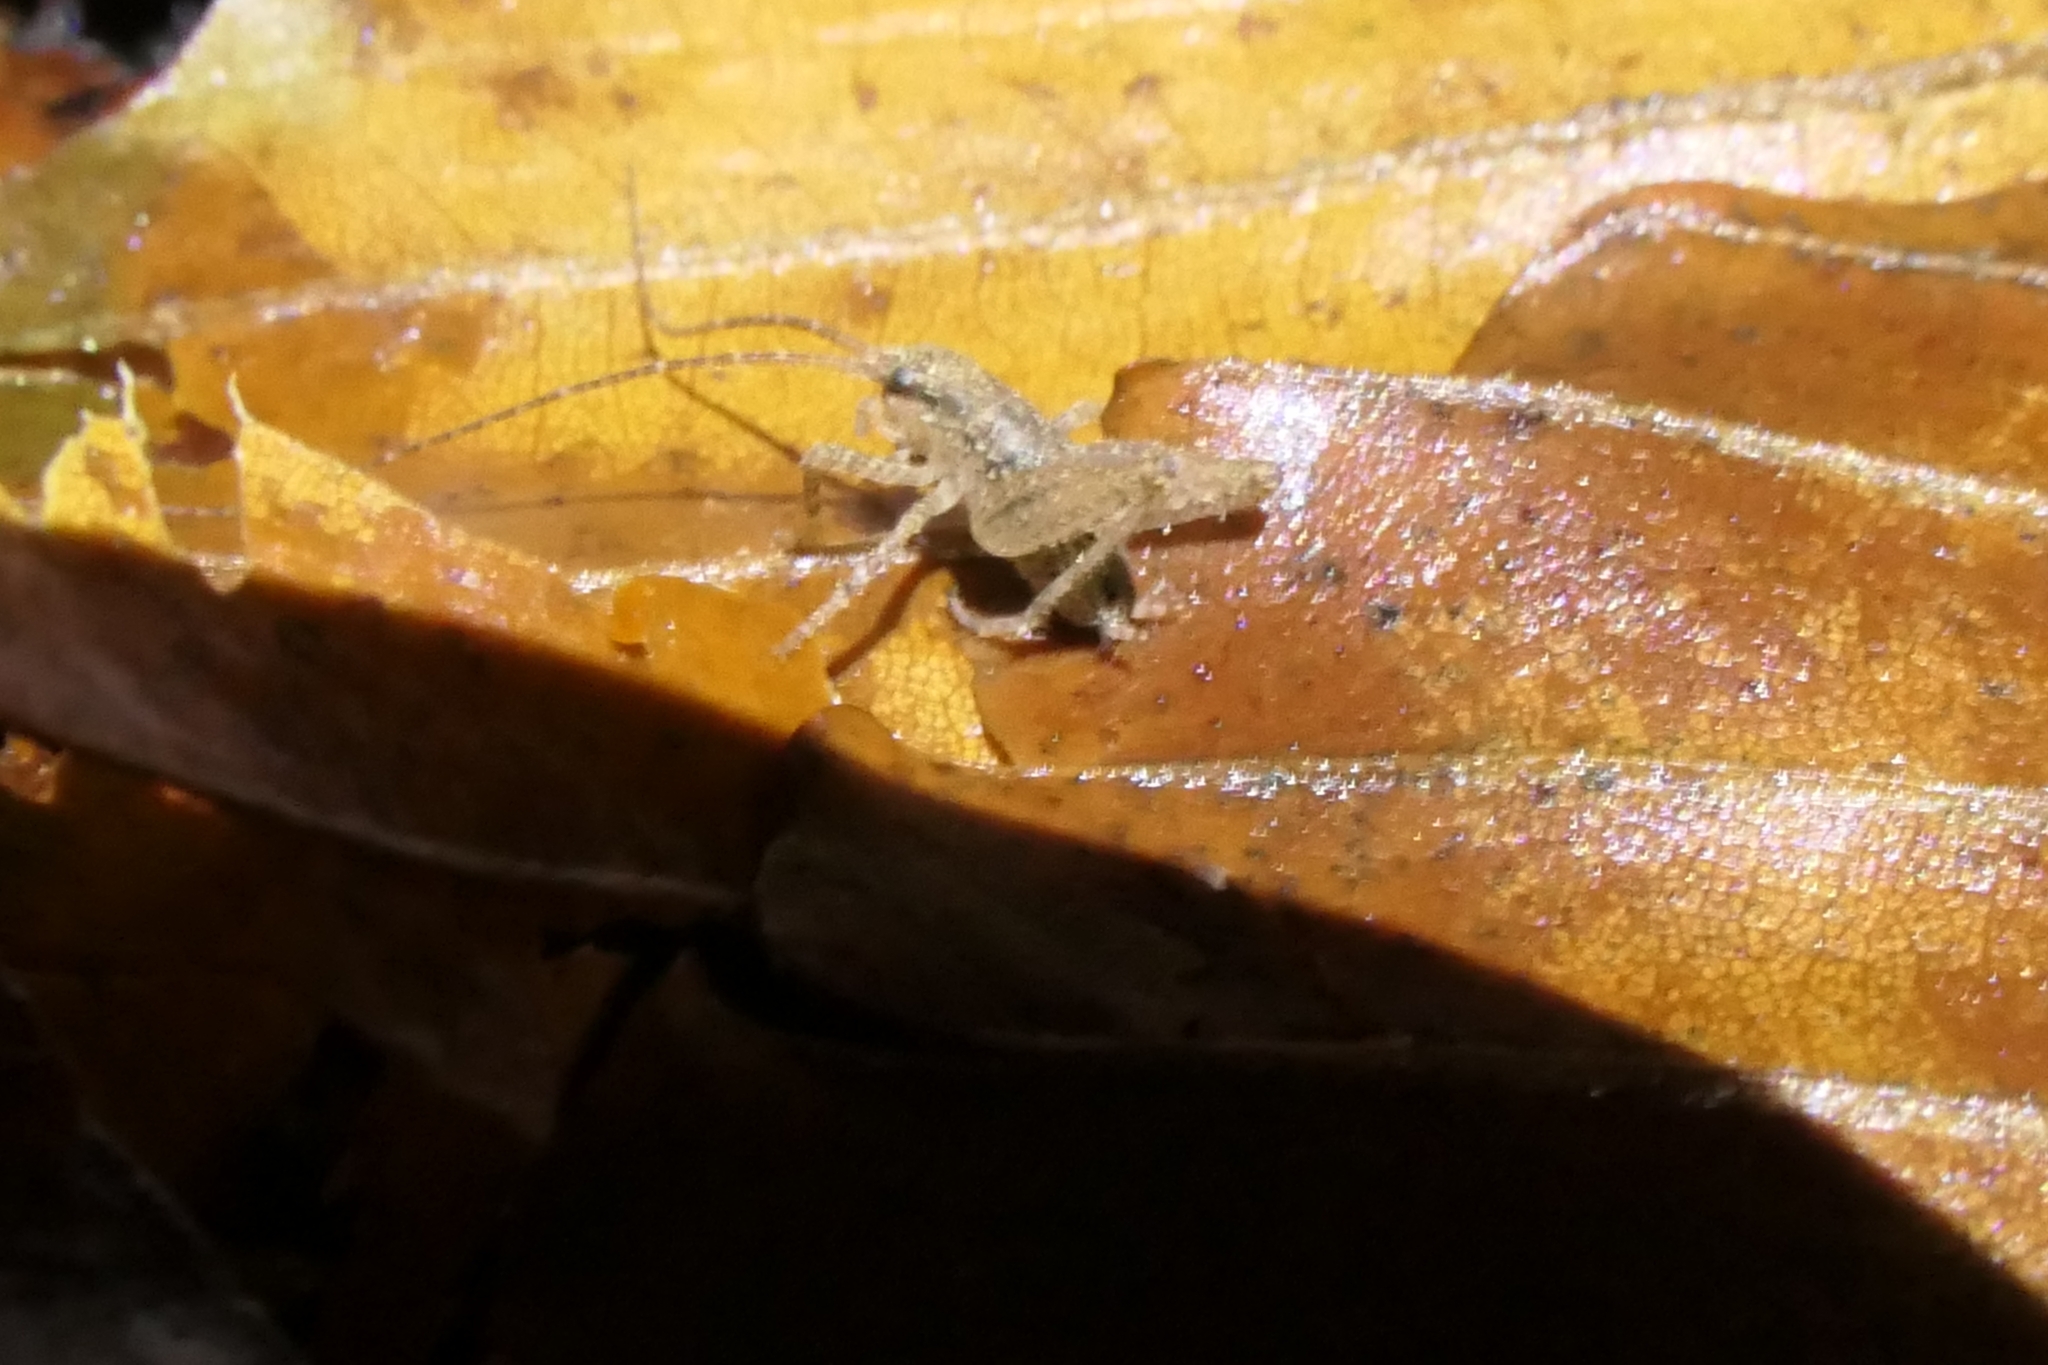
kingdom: Animalia
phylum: Arthropoda
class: Insecta
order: Orthoptera
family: Rhaphidophoridae
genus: Isoplectron
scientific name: Isoplectron armatum
